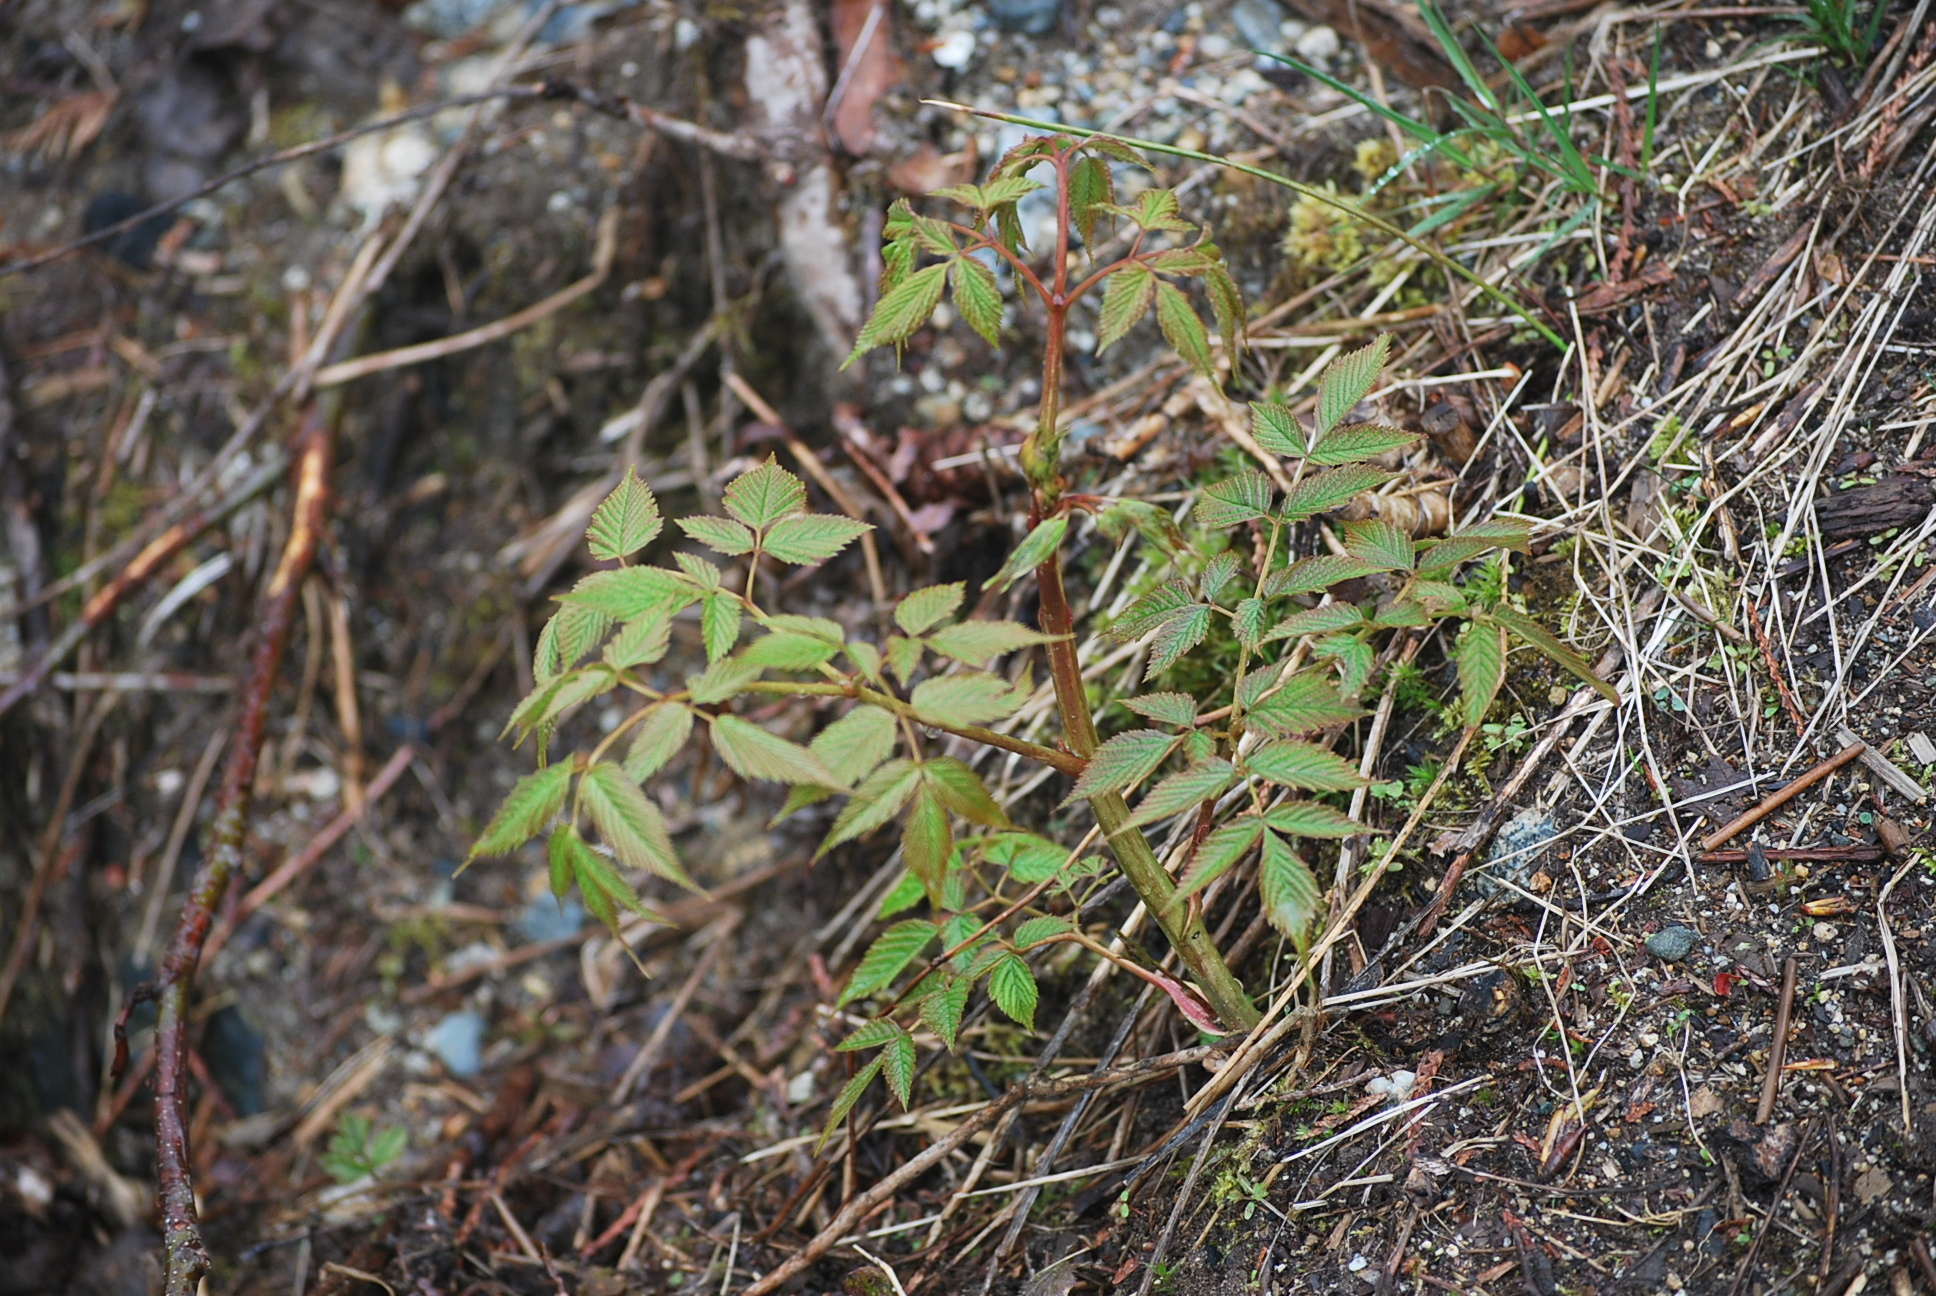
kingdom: Plantae
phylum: Tracheophyta
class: Magnoliopsida
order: Rosales
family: Rosaceae
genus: Aruncus
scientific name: Aruncus dioicus
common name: Buck's-beard
